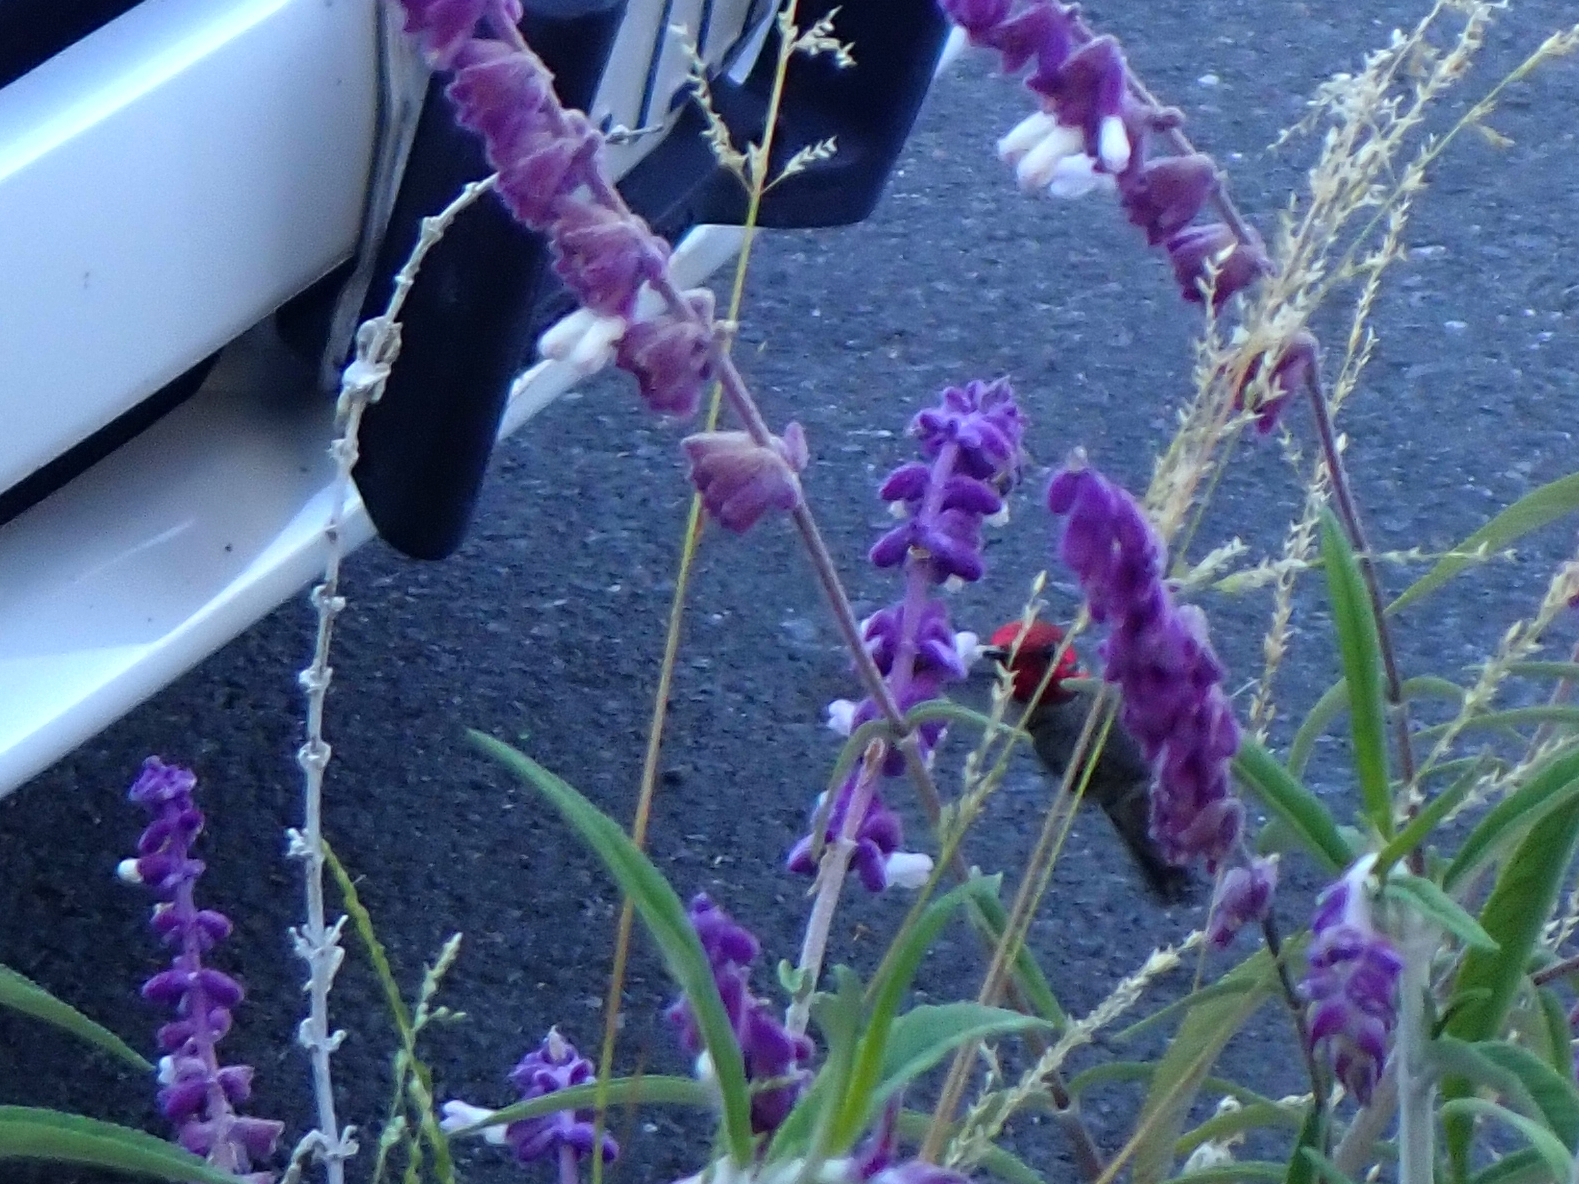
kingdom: Animalia
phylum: Chordata
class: Aves
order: Apodiformes
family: Trochilidae
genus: Calypte
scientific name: Calypte anna
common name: Anna's hummingbird
